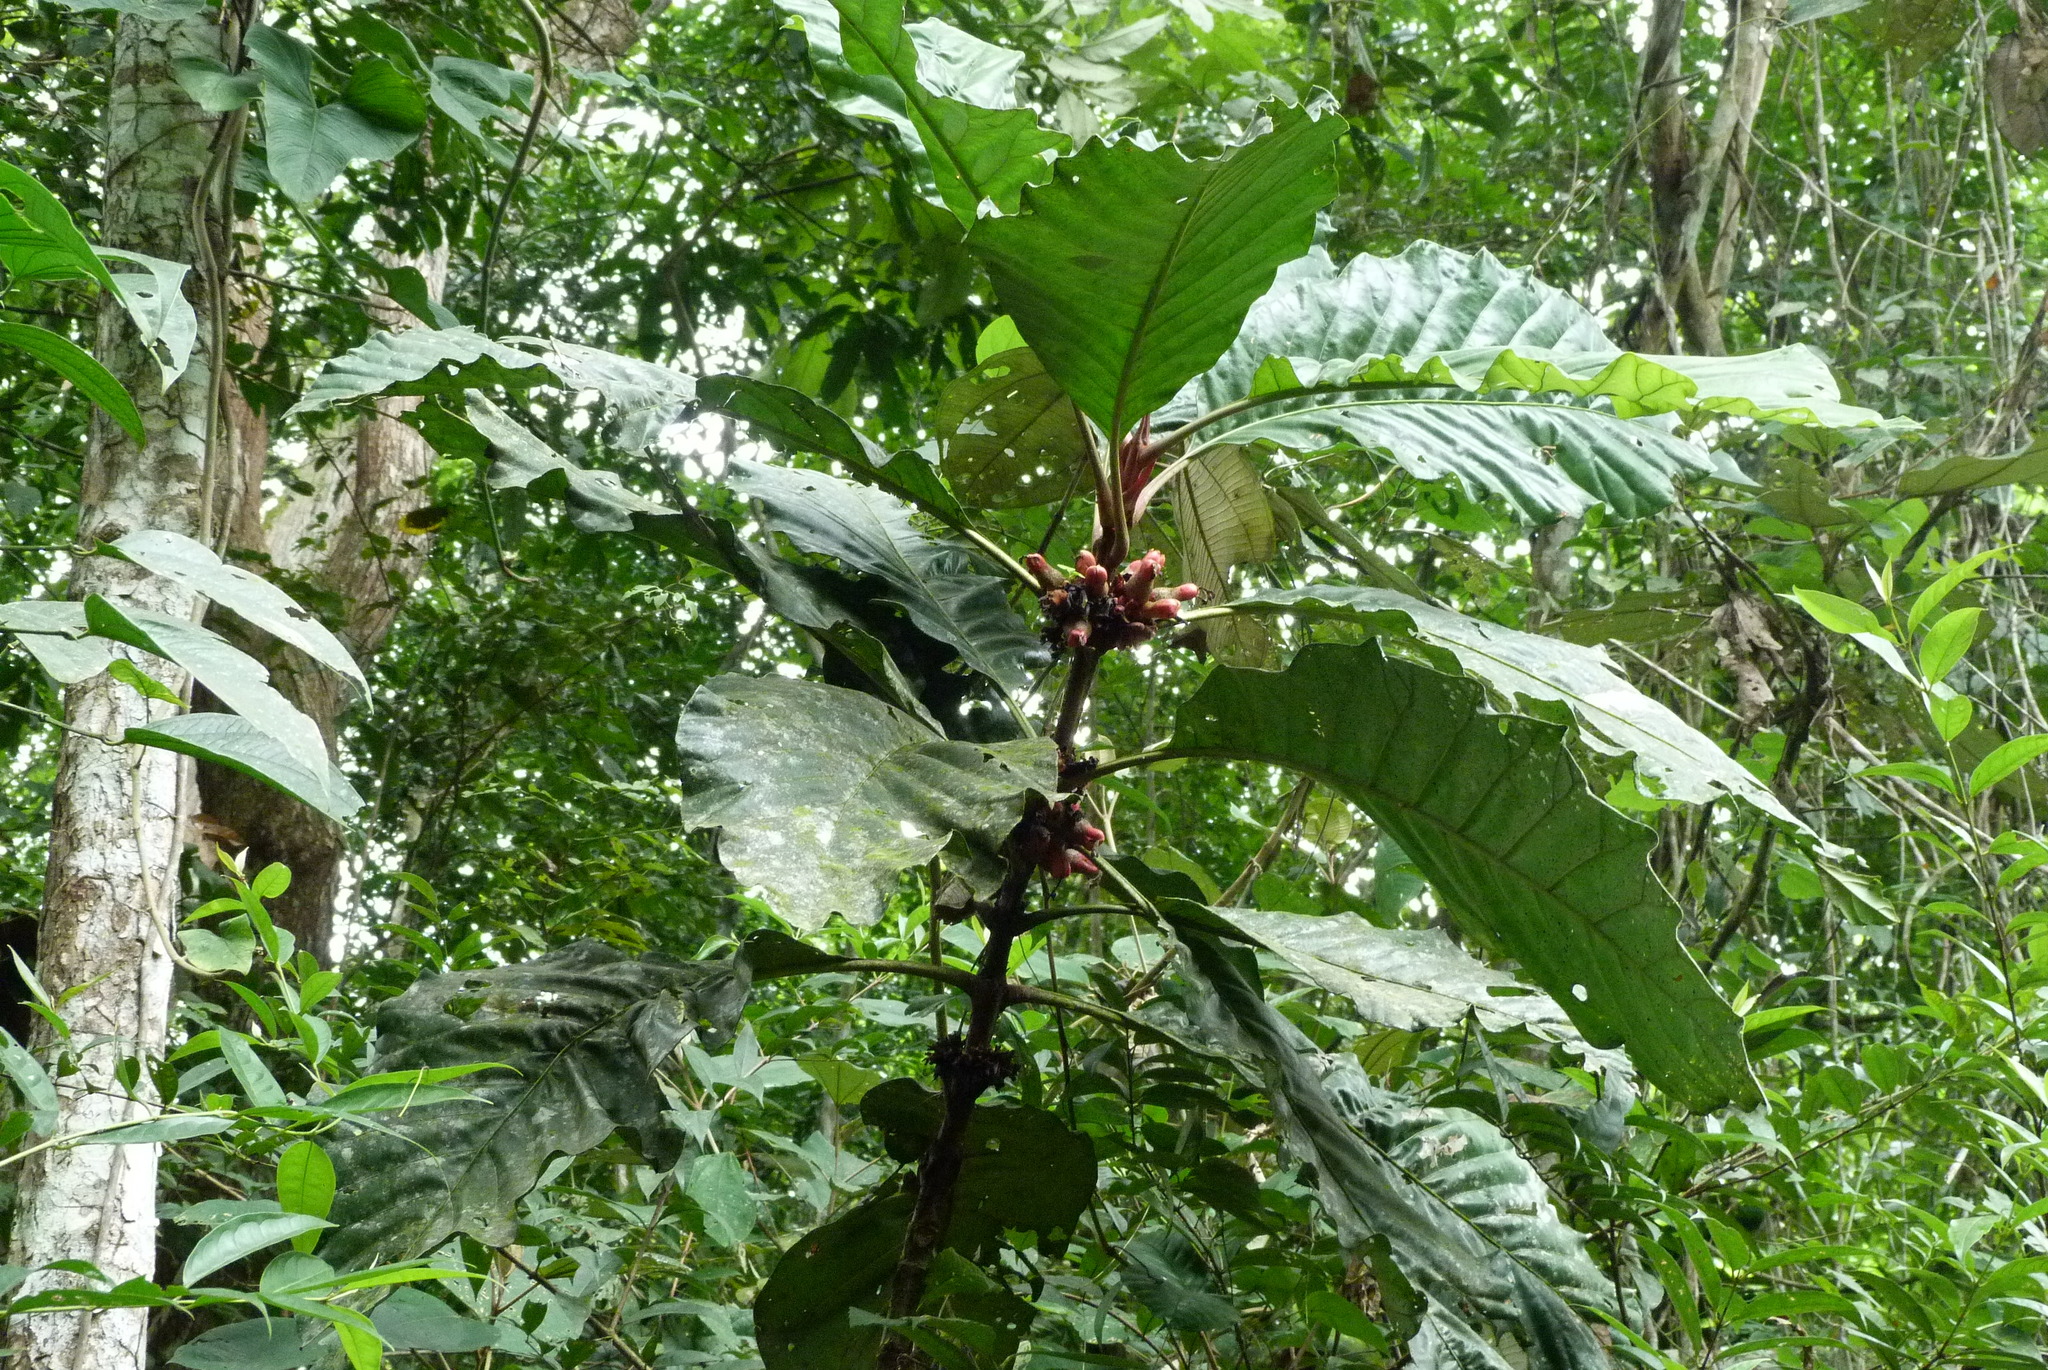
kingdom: Plantae
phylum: Tracheophyta
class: Magnoliopsida
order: Gentianales
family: Rubiaceae
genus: Pentagonia
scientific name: Pentagonia macrophylla
